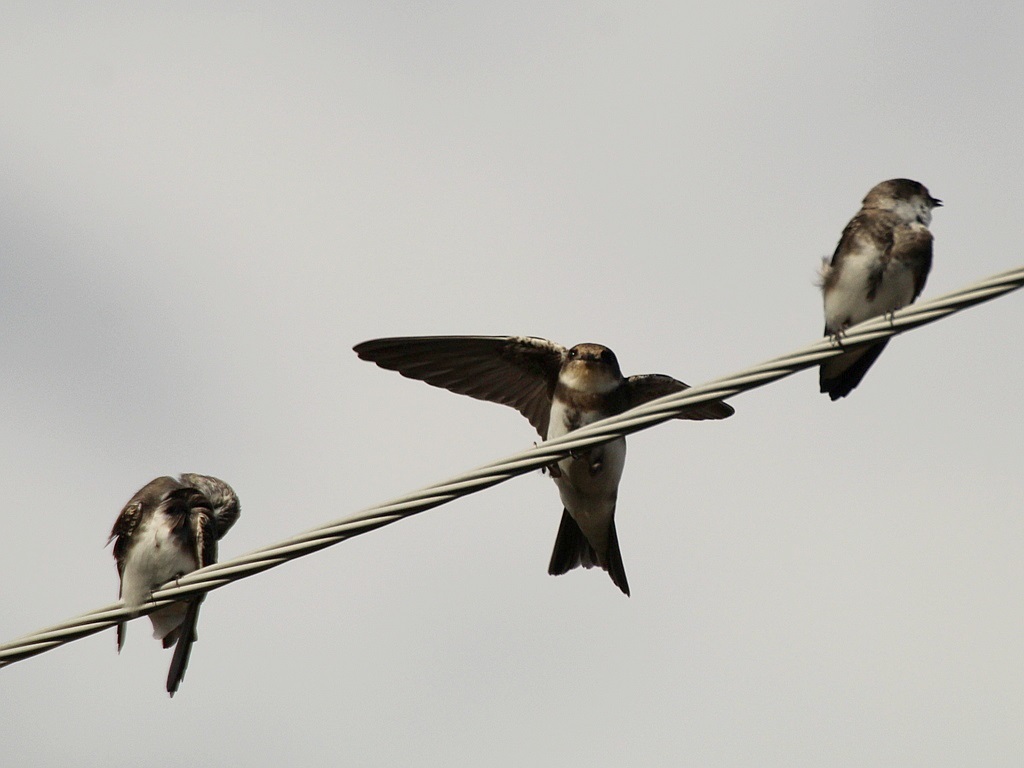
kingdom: Animalia
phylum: Chordata
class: Aves
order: Passeriformes
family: Hirundinidae
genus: Riparia
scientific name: Riparia riparia
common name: Sand martin
